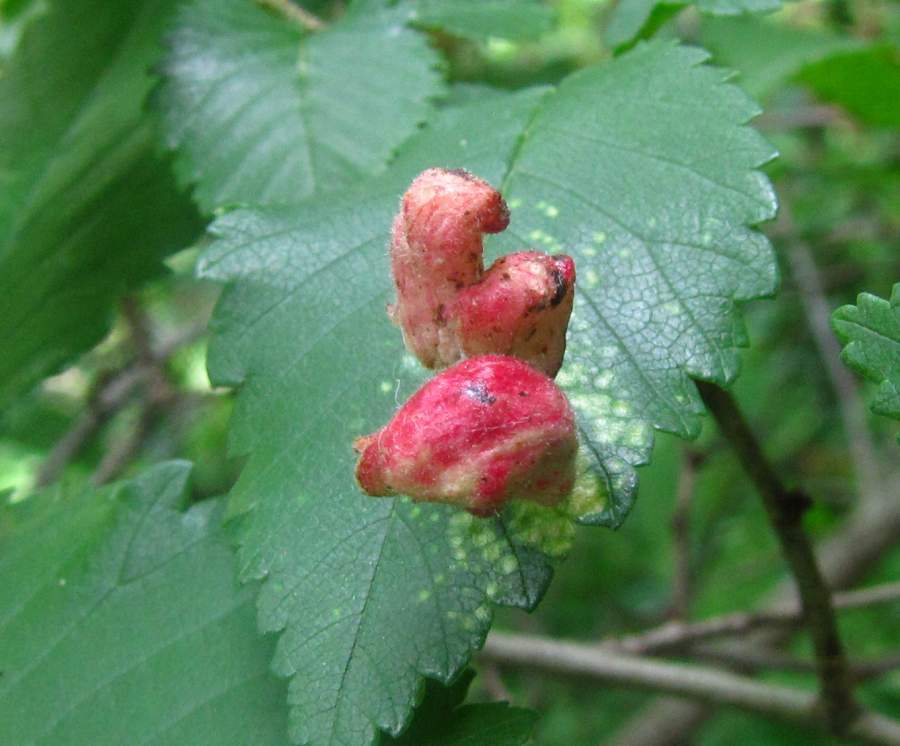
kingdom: Animalia
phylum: Arthropoda
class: Insecta
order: Hemiptera
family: Aphididae
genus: Tetraneura
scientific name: Tetraneura nigriabdominalis
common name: Aphid
